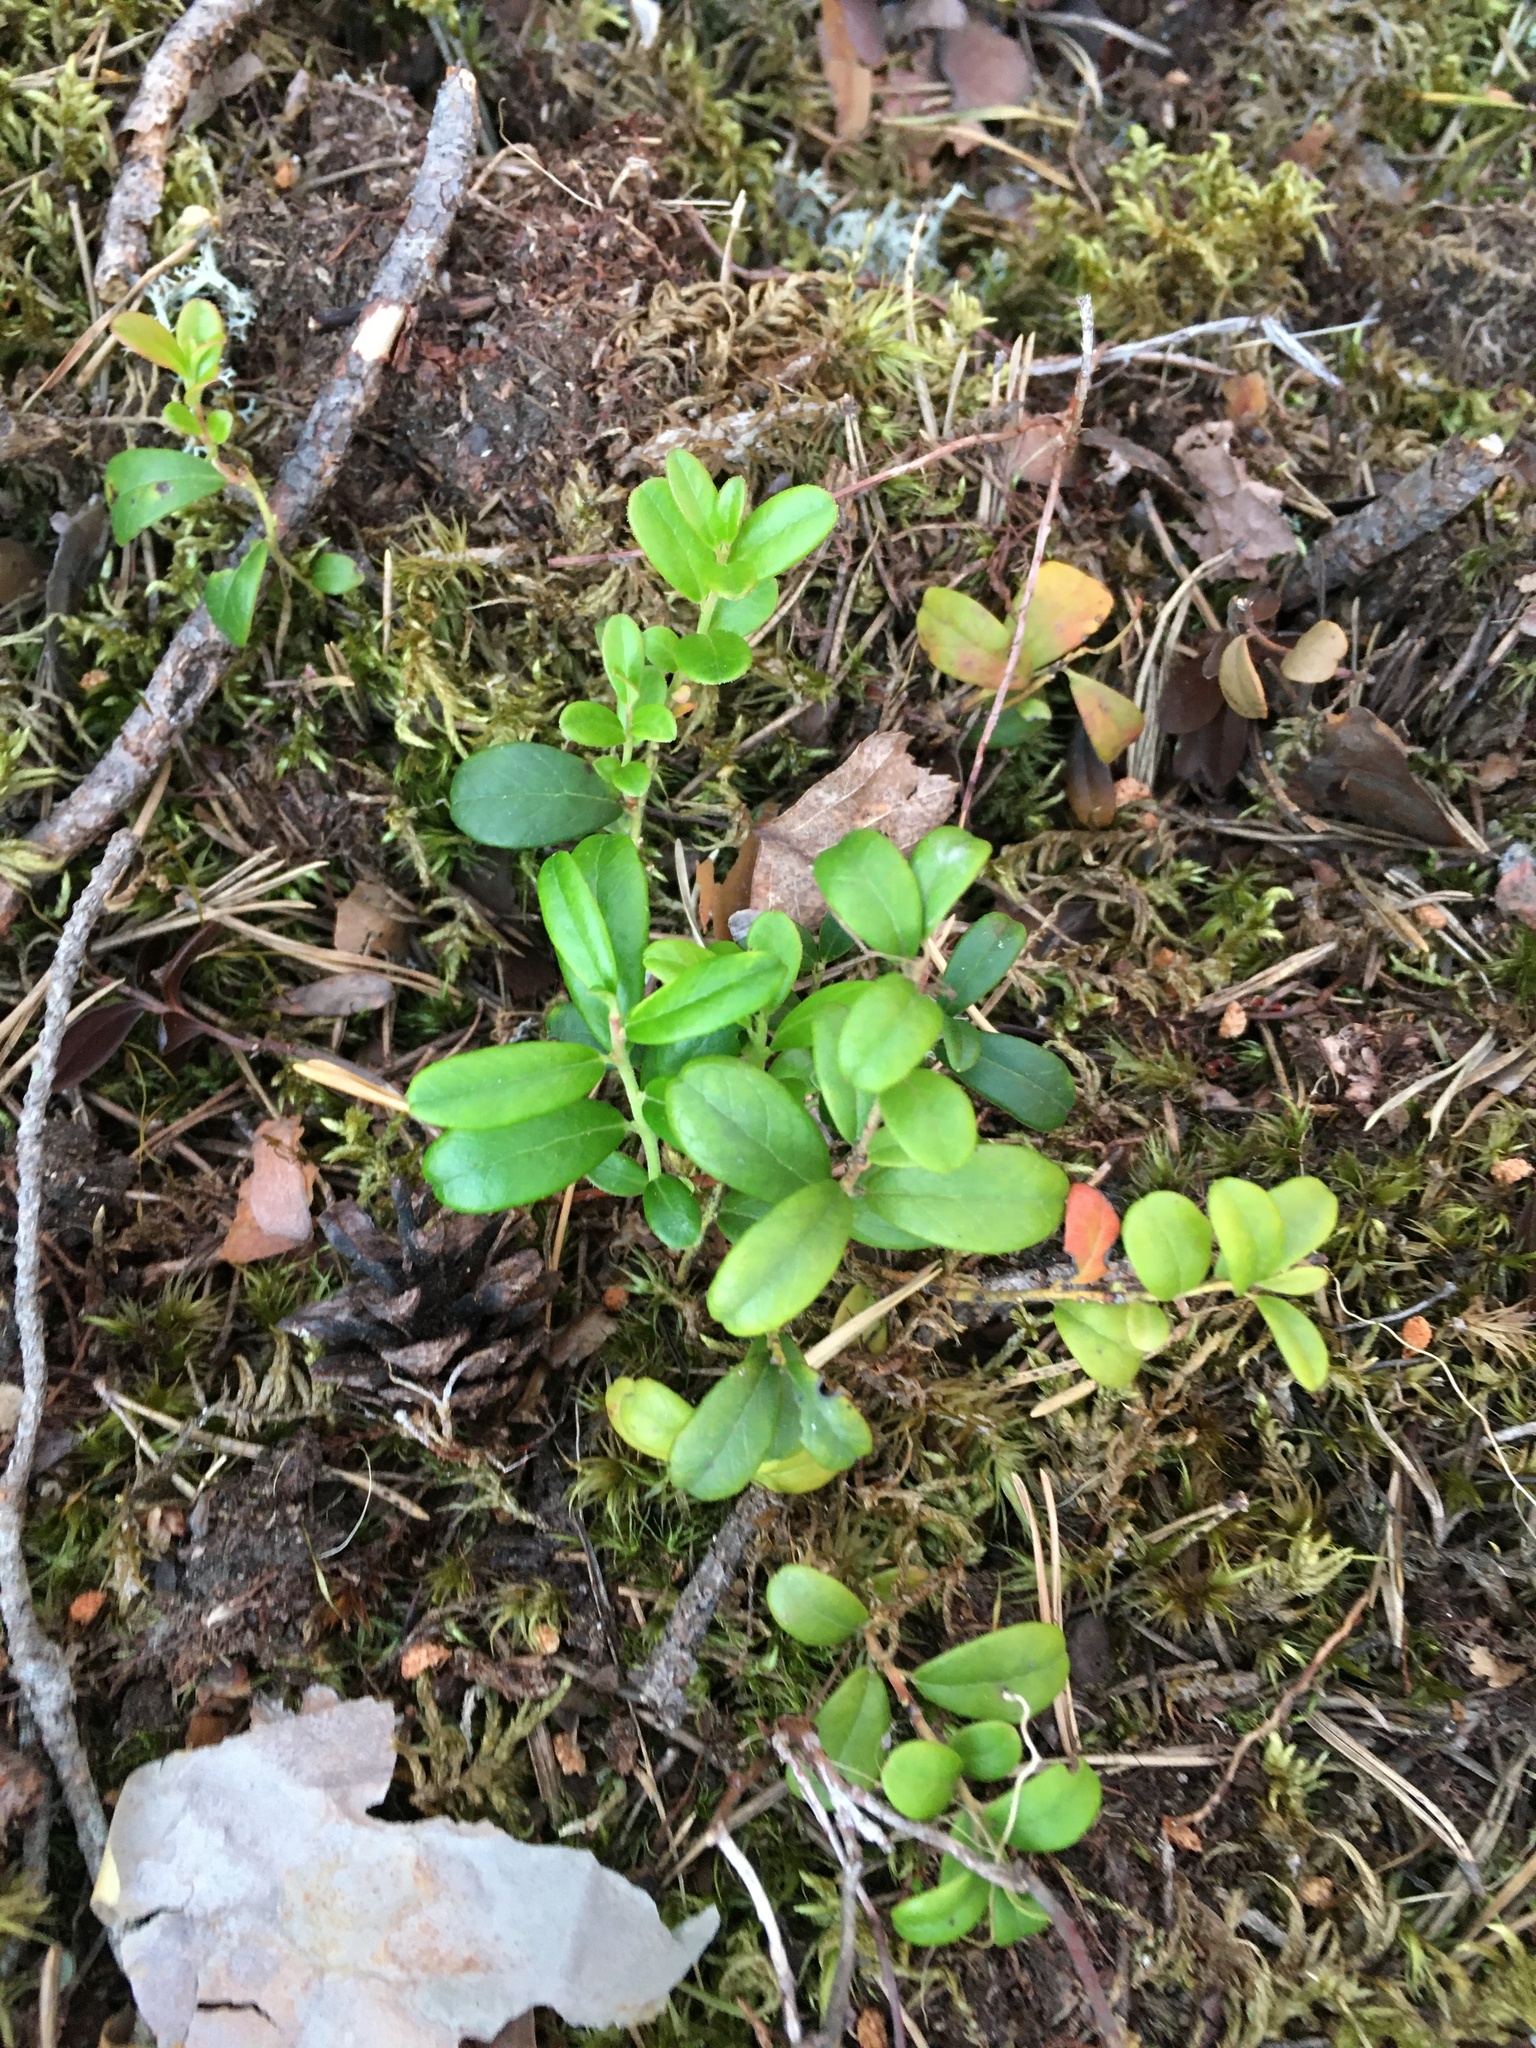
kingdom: Plantae
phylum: Tracheophyta
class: Magnoliopsida
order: Ericales
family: Ericaceae
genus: Vaccinium
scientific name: Vaccinium vitis-idaea
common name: Cowberry
